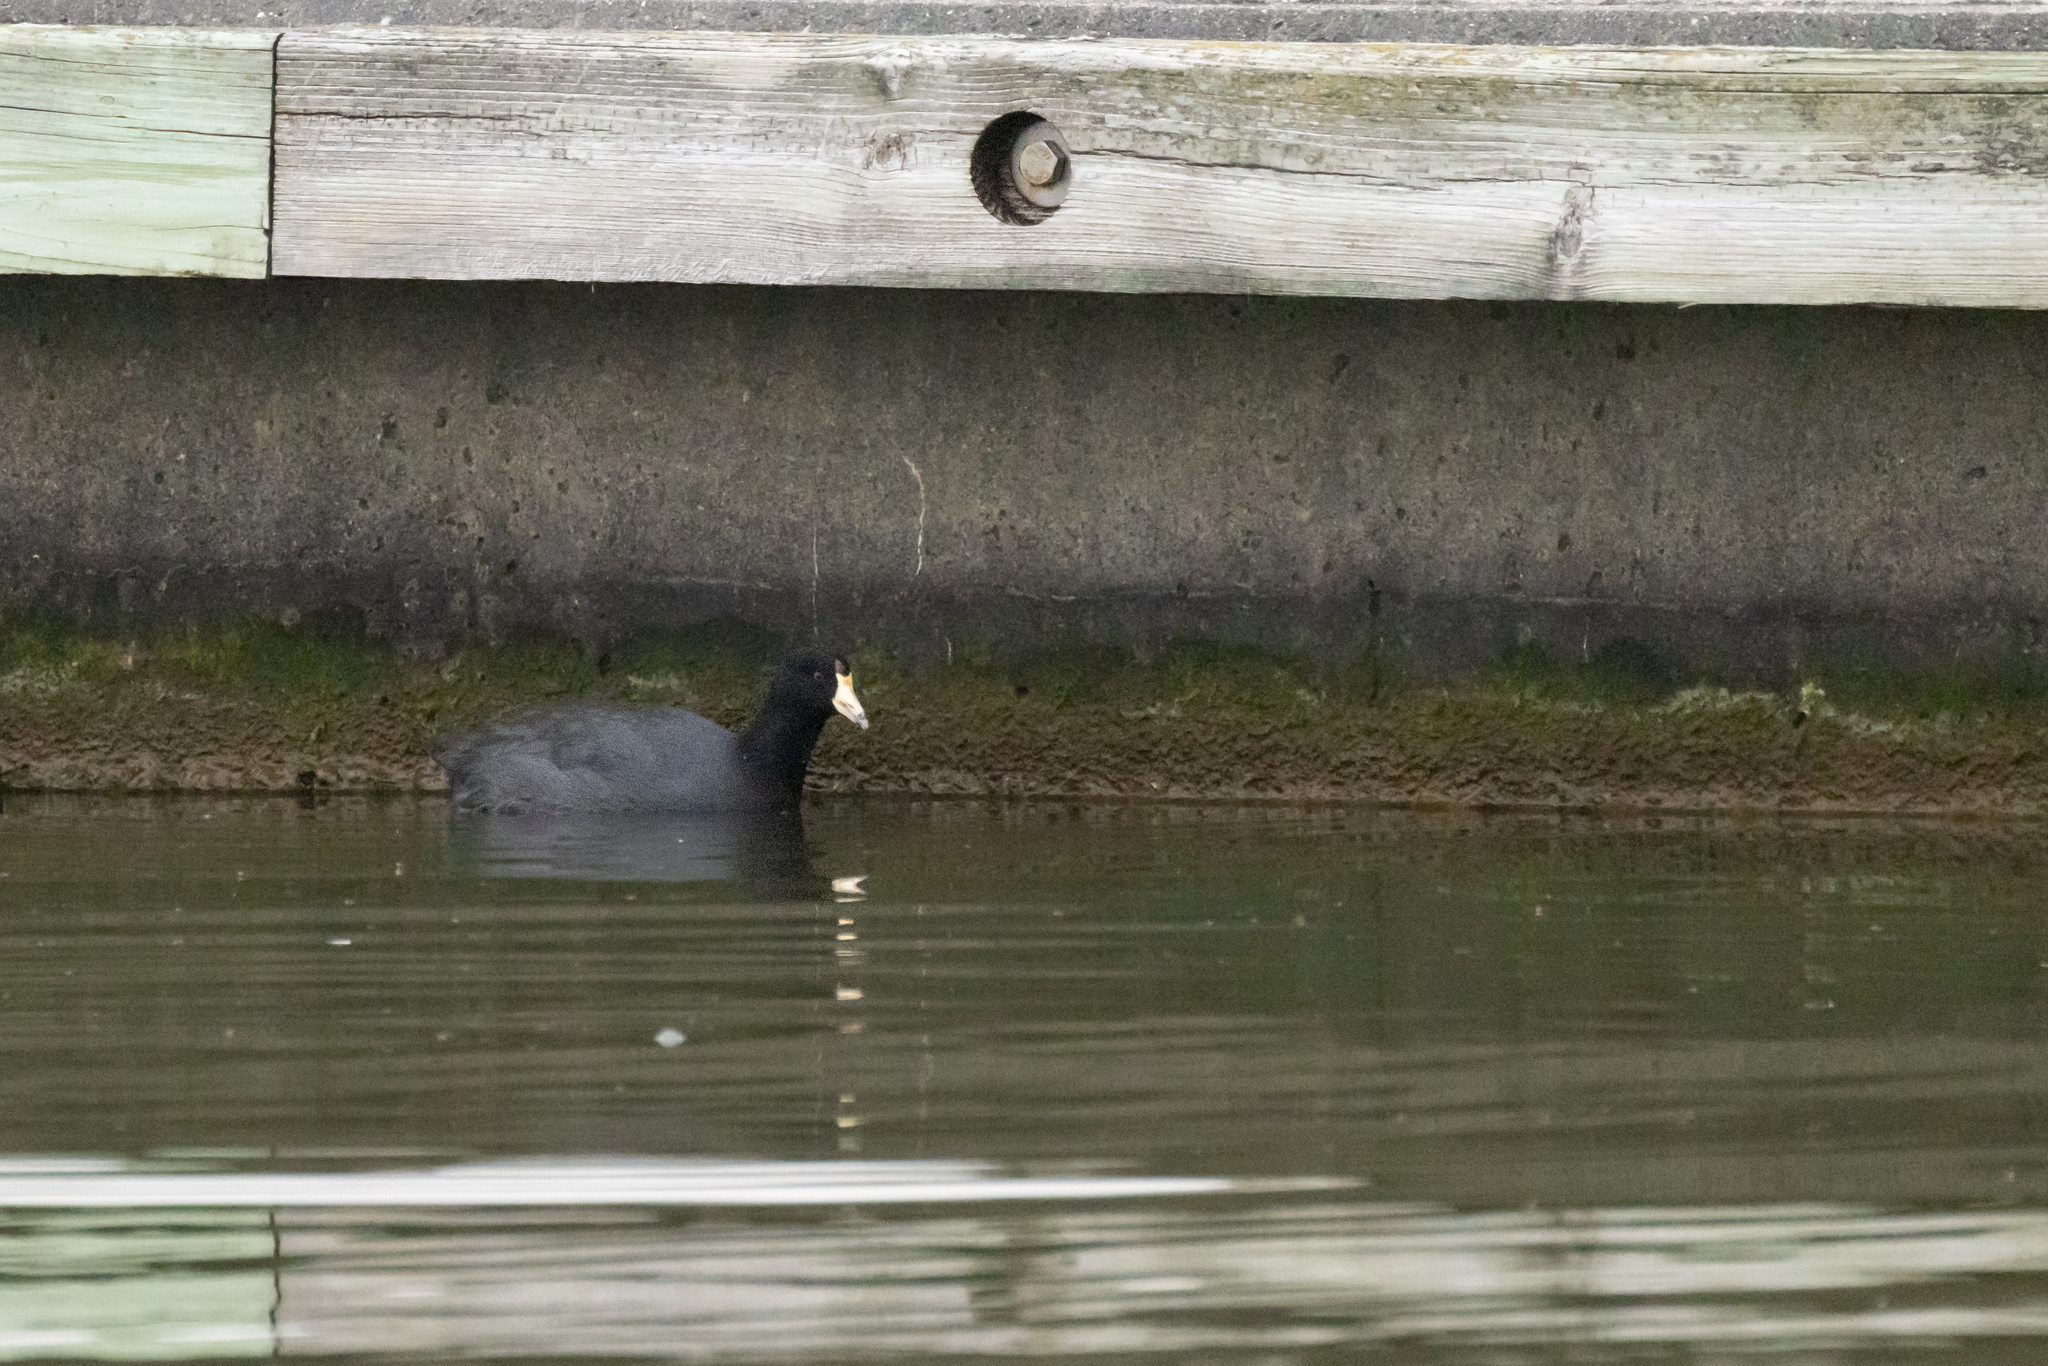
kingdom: Animalia
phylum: Chordata
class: Aves
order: Gruiformes
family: Rallidae
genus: Fulica
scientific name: Fulica americana
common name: American coot
